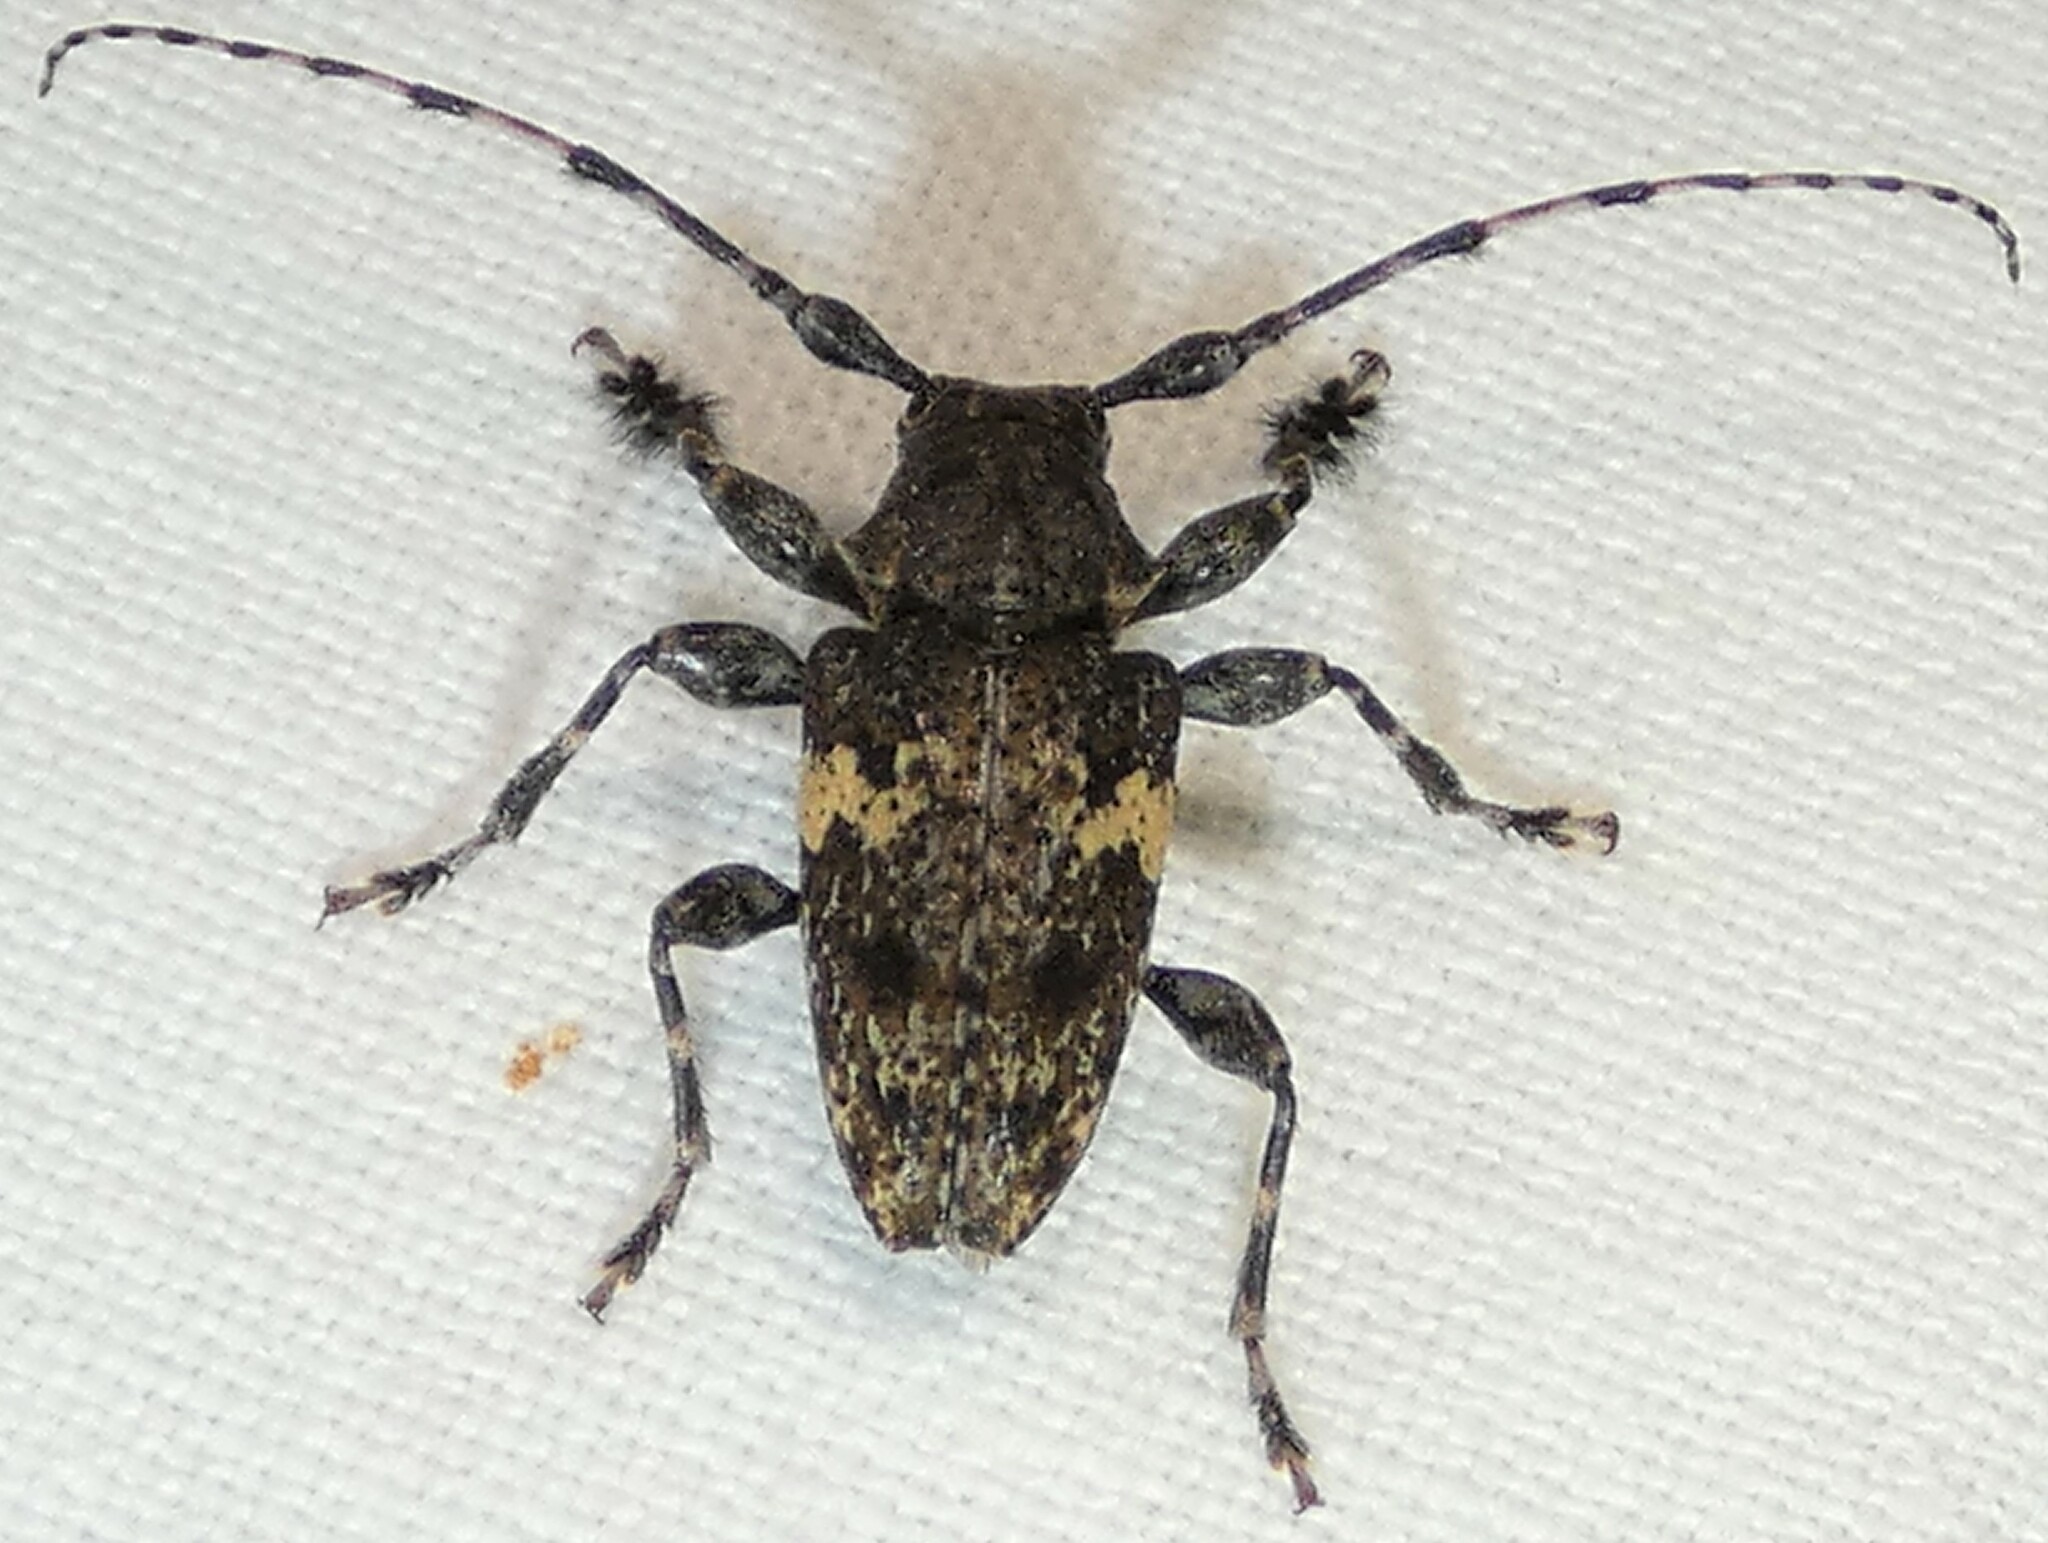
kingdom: Animalia
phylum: Arthropoda
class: Insecta
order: Coleoptera
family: Cerambycidae
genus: Acanthoderes
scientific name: Acanthoderes quadrigibba
